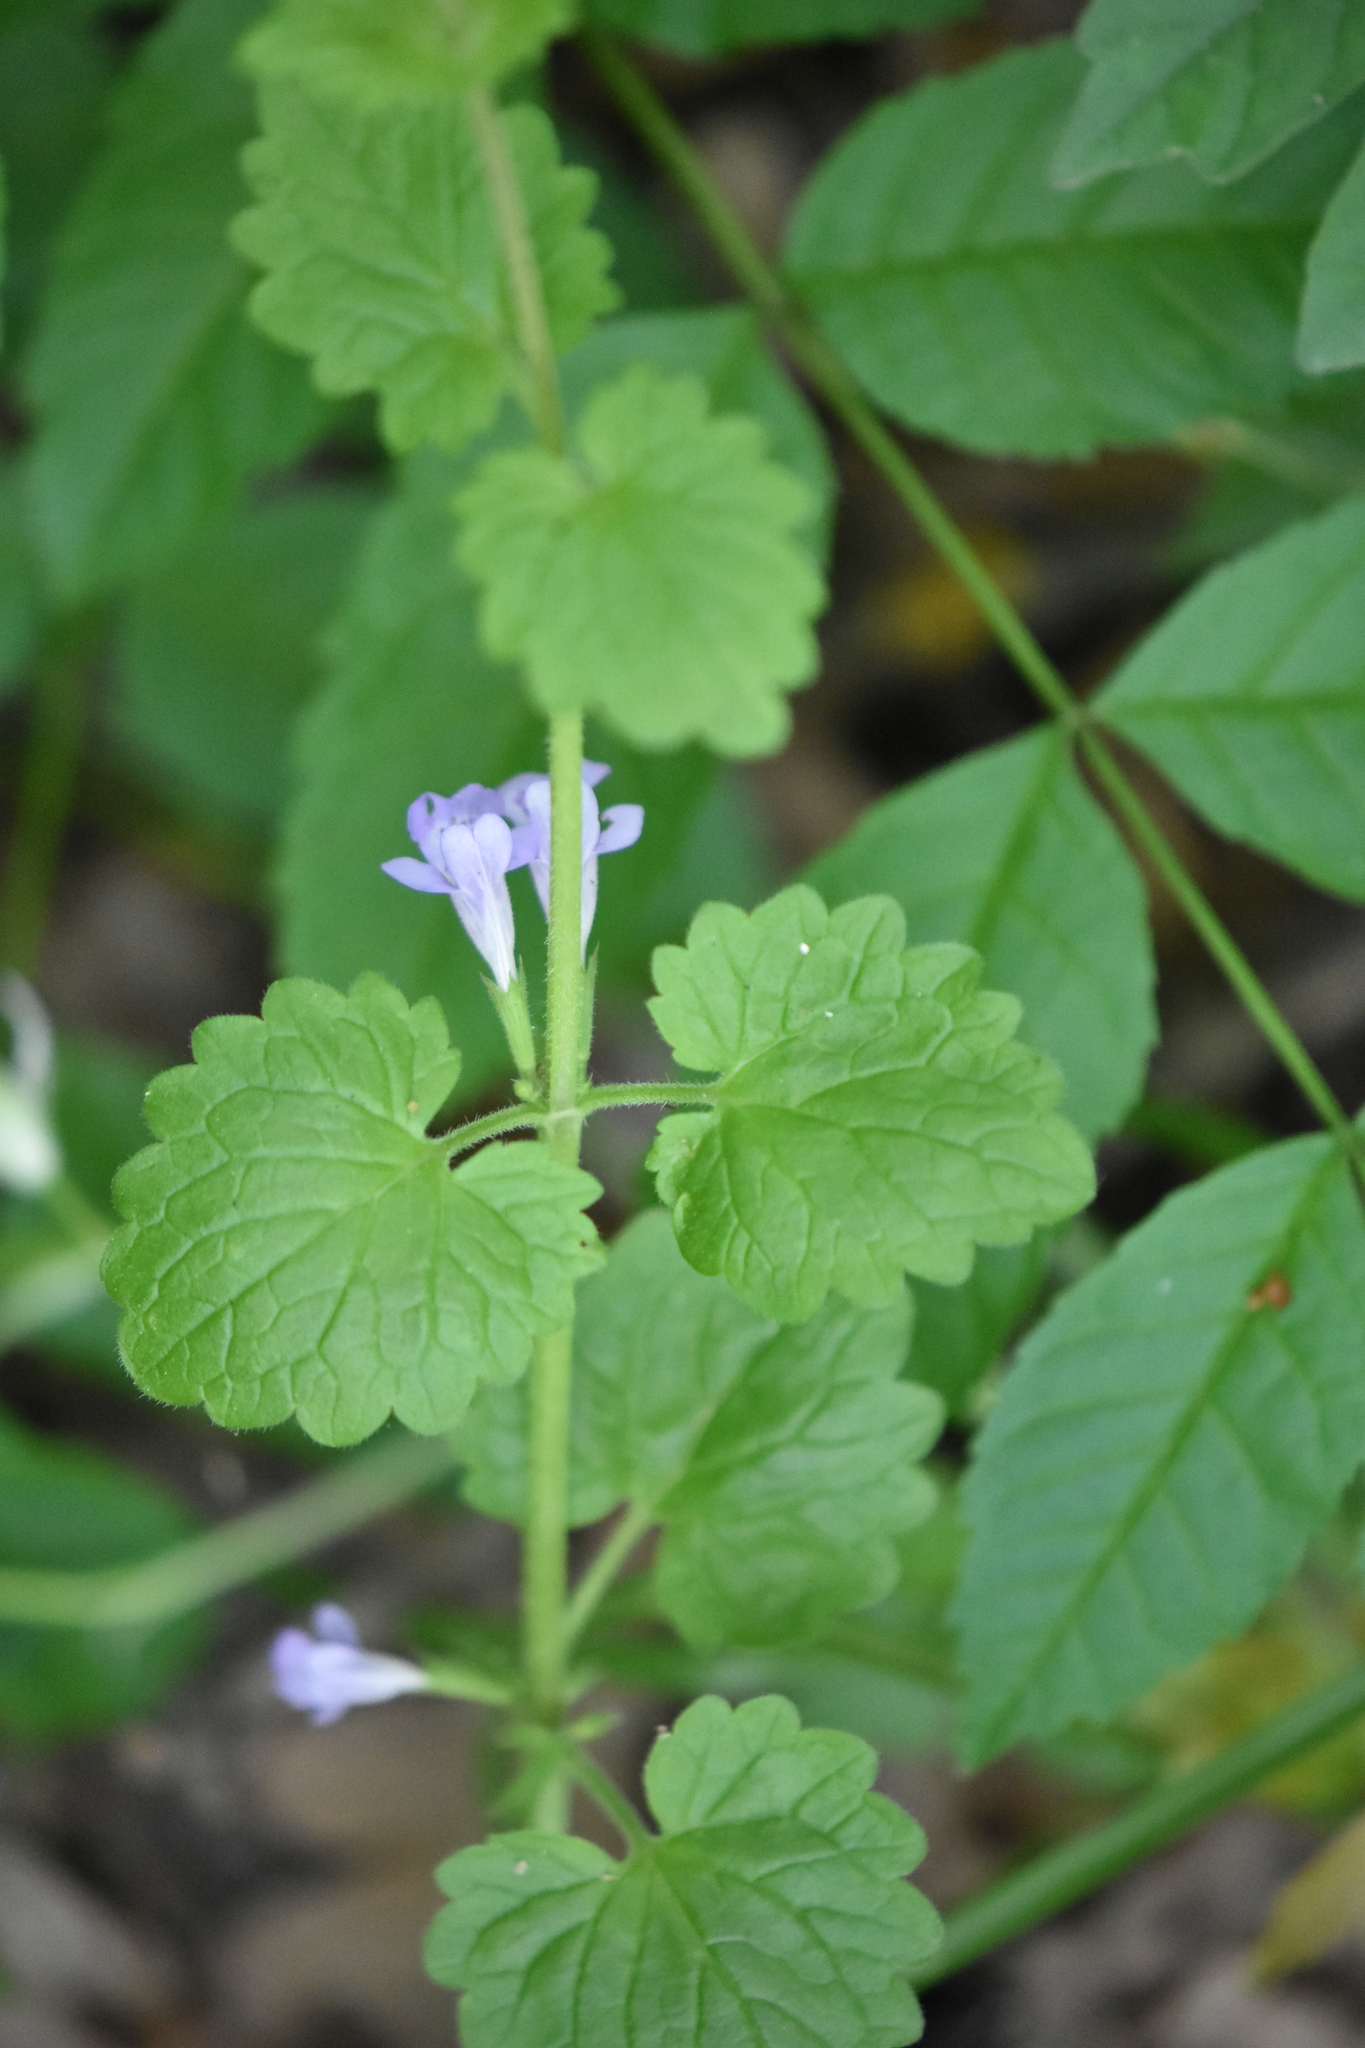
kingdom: Plantae
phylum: Tracheophyta
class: Magnoliopsida
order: Lamiales
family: Lamiaceae
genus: Glechoma
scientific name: Glechoma hederacea
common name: Ground ivy
